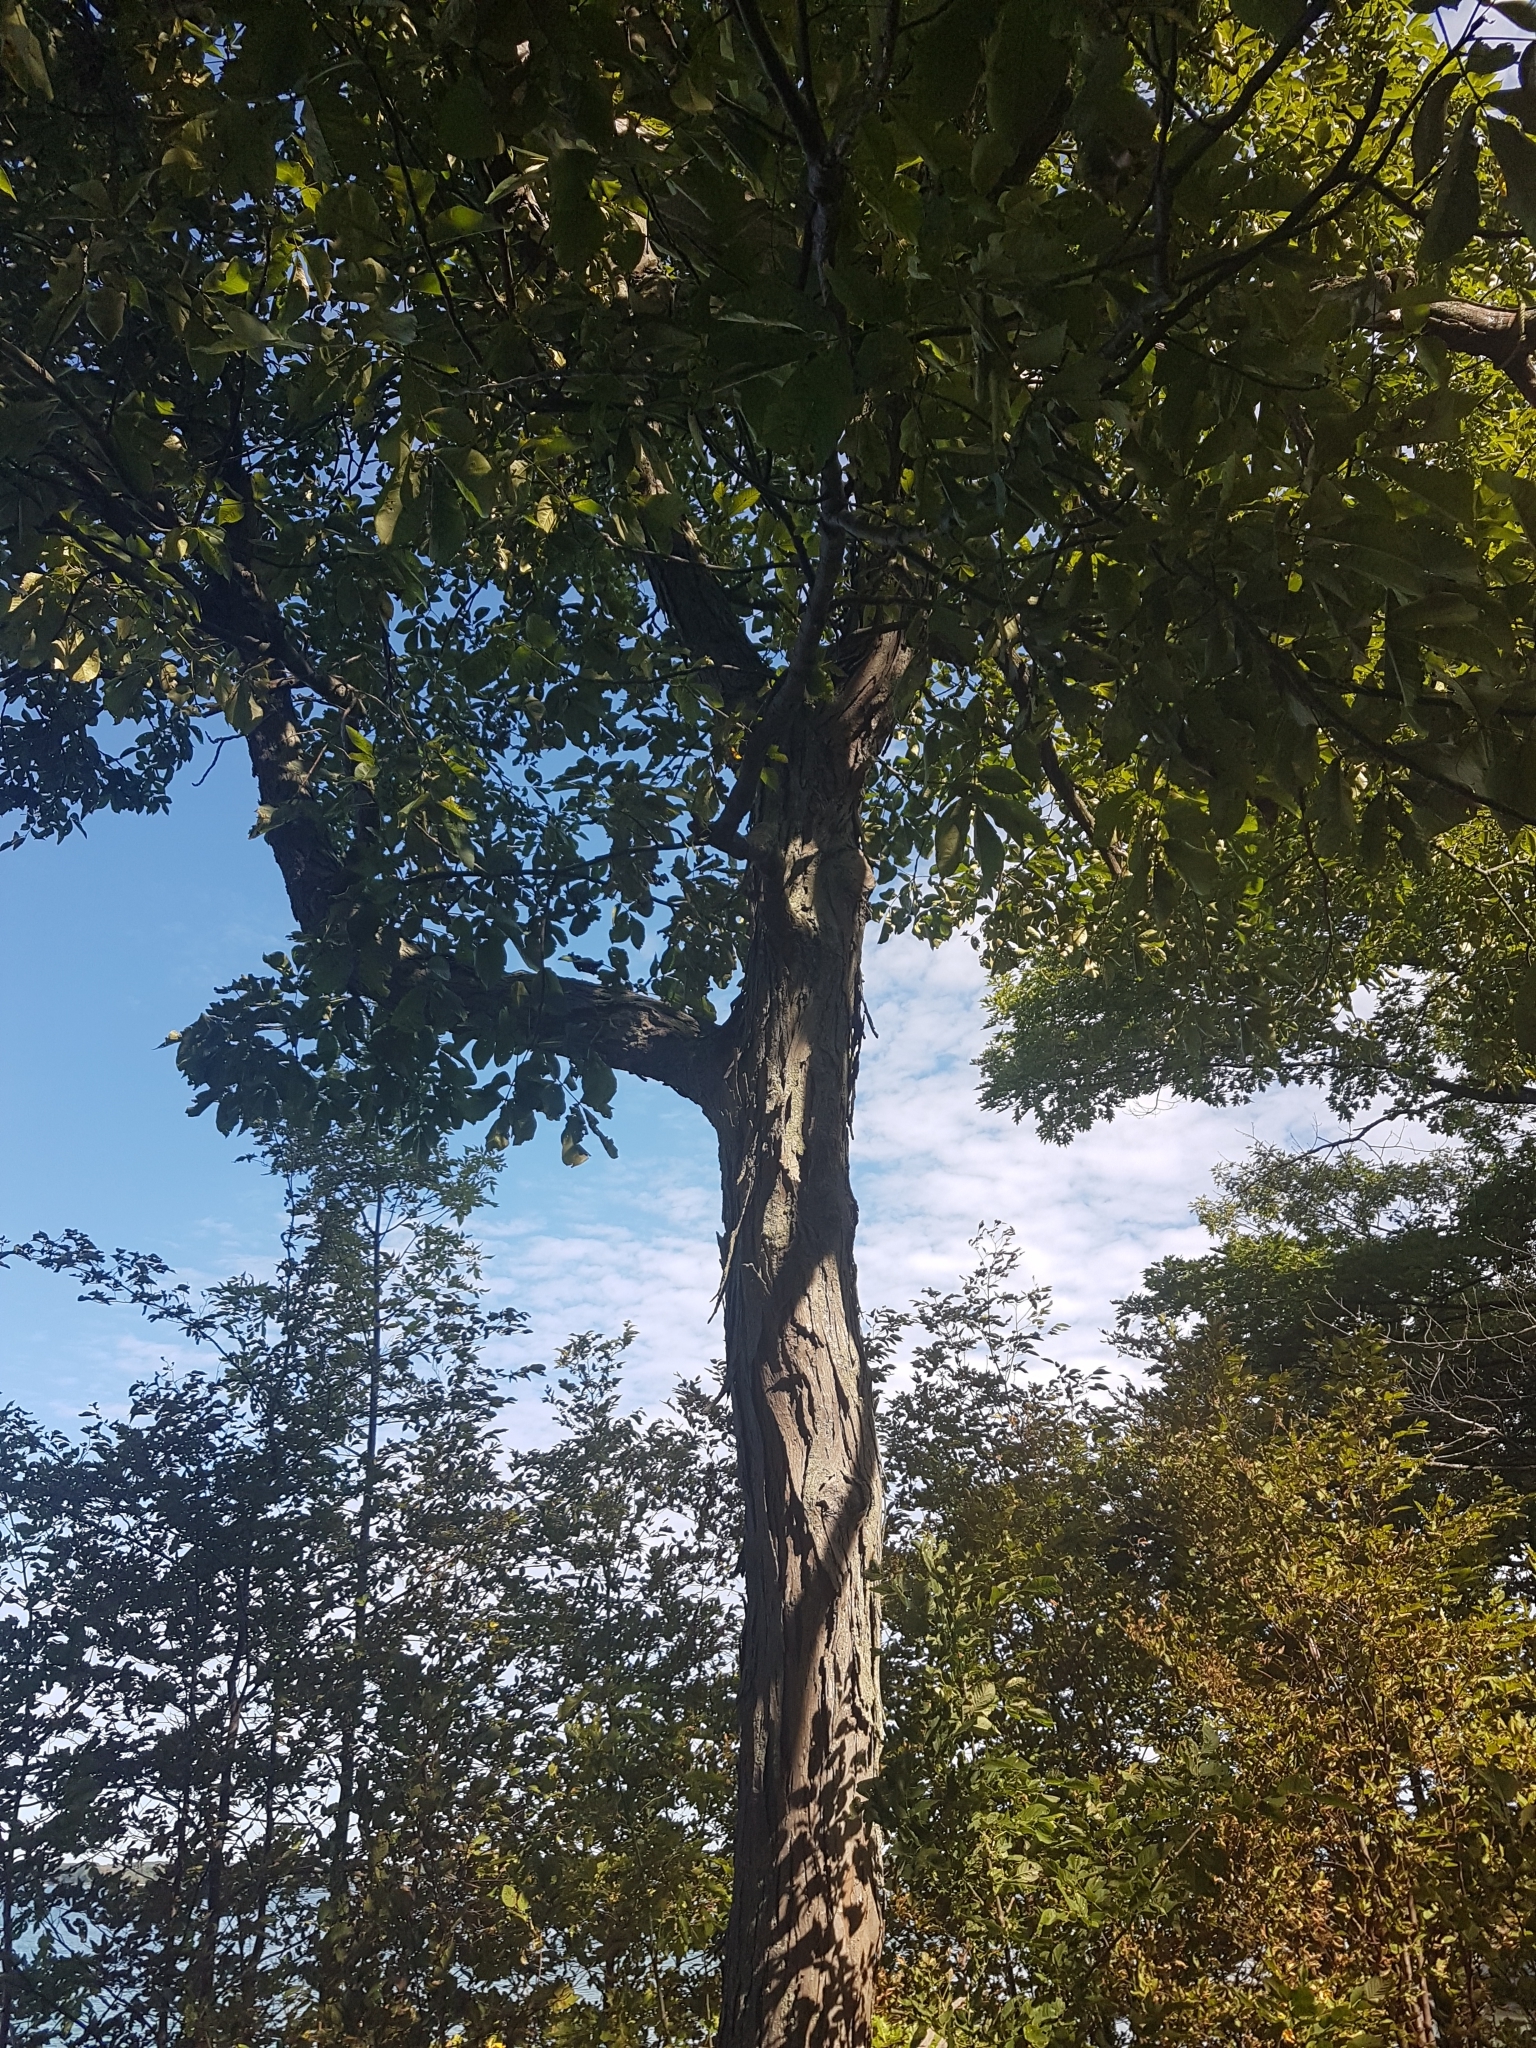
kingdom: Plantae
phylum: Tracheophyta
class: Magnoliopsida
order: Fagales
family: Juglandaceae
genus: Carya
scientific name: Carya ovata
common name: Shagbark hickory
